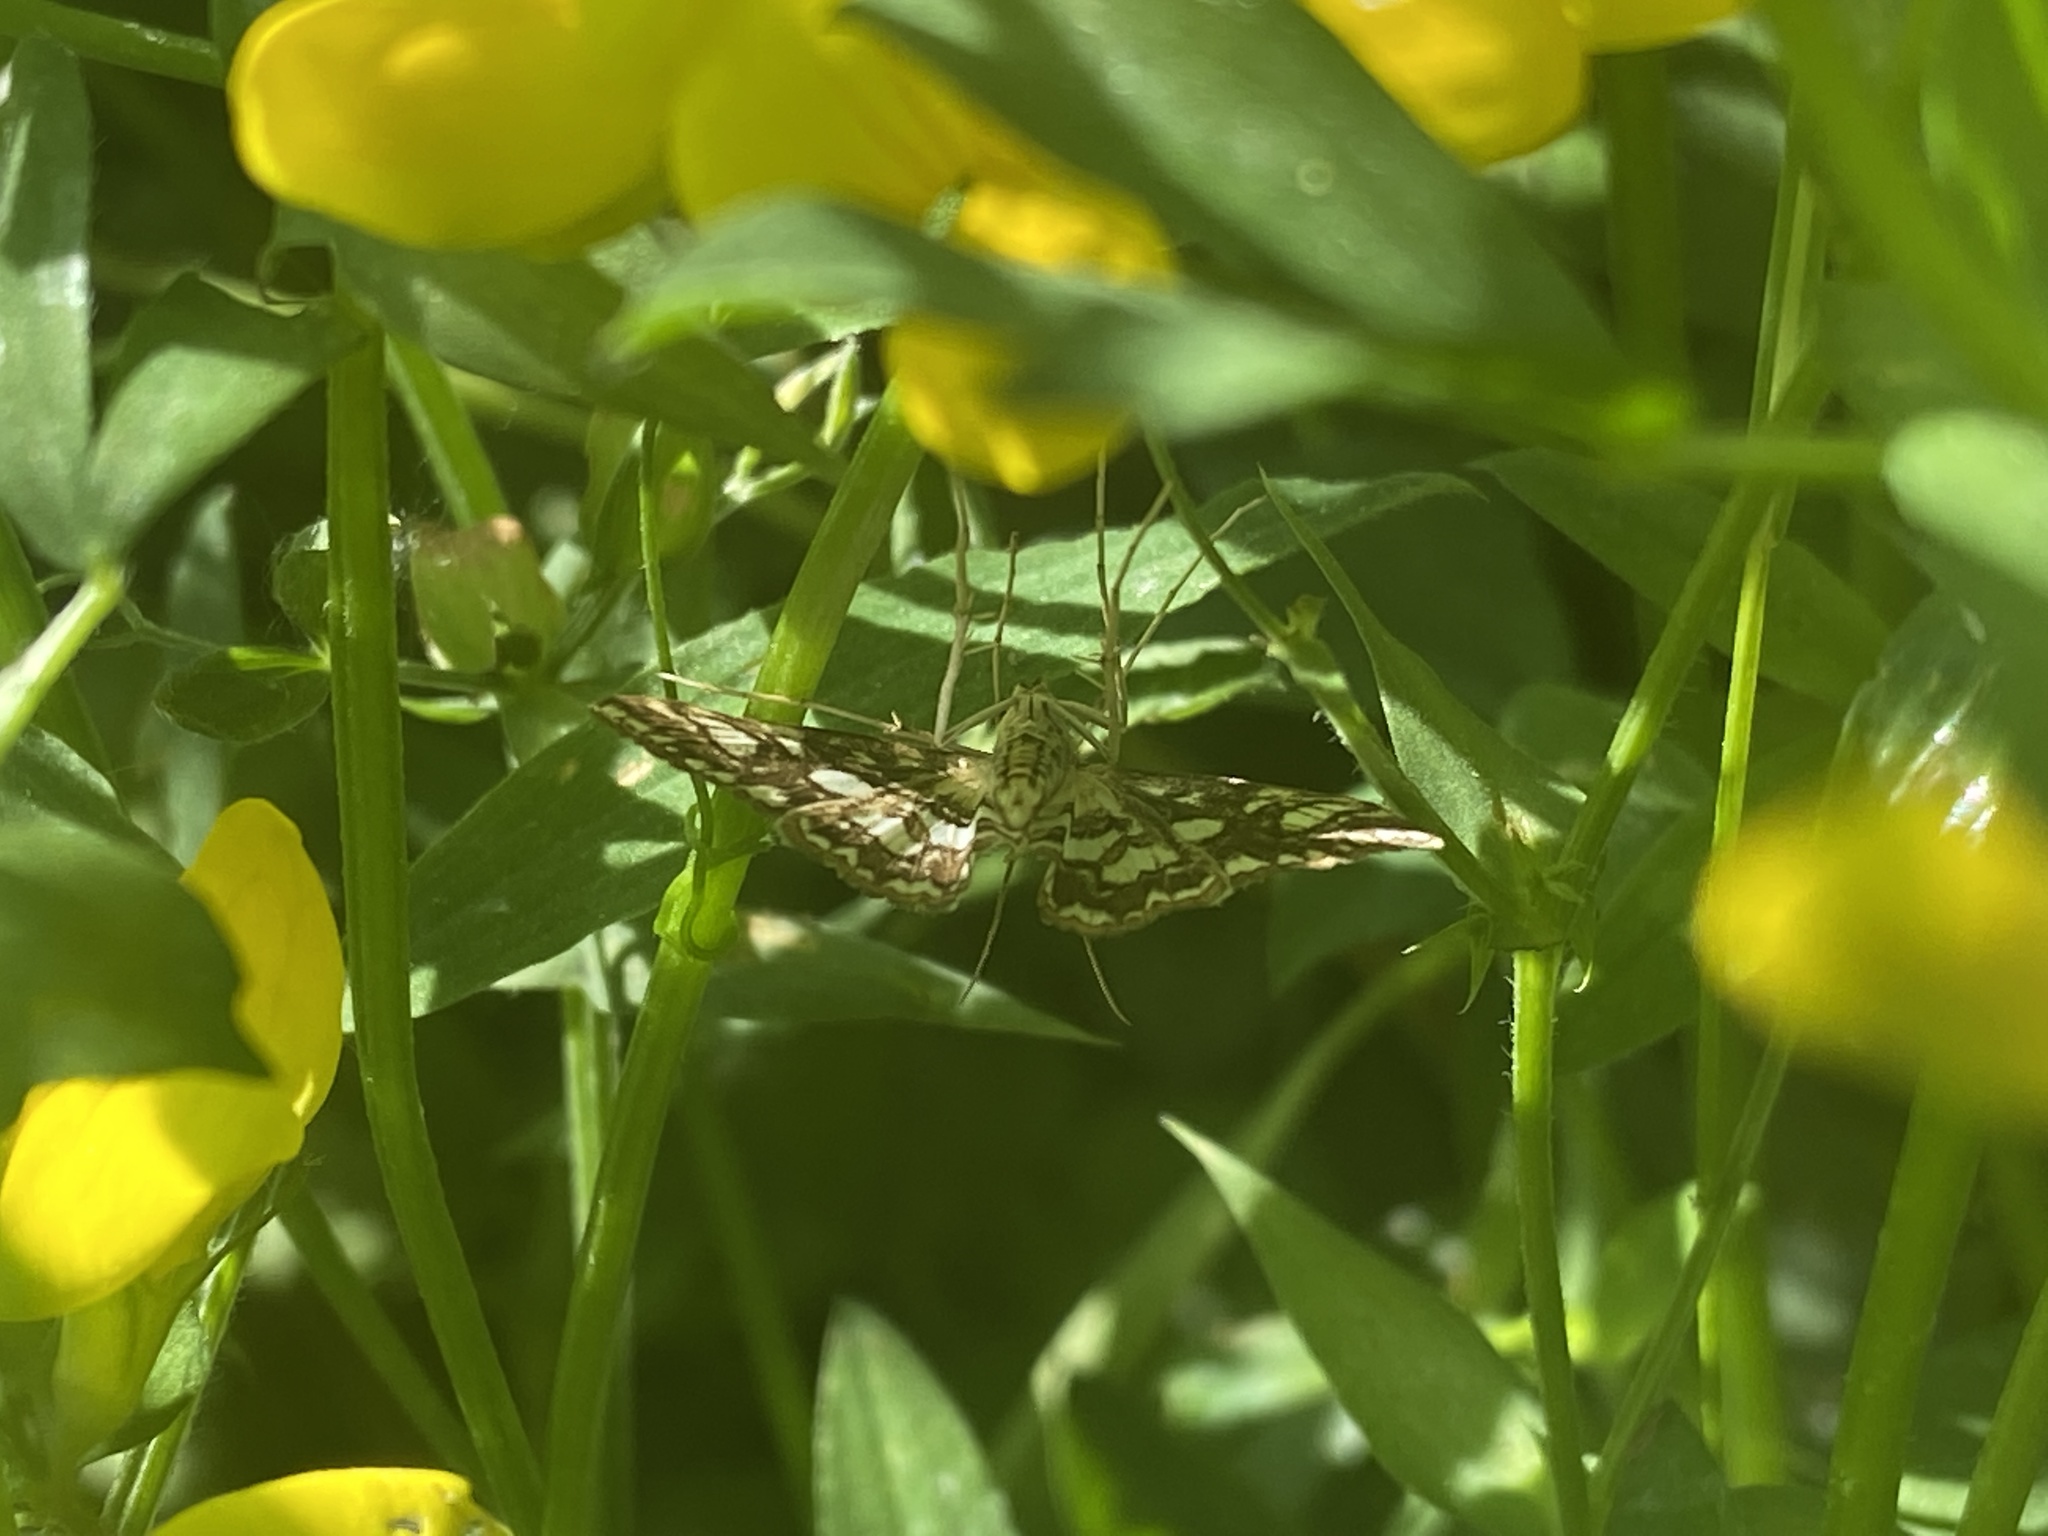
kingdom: Animalia
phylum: Arthropoda
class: Insecta
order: Lepidoptera
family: Geometridae
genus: Chiasmia
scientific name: Chiasmia clathrata
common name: Latticed heath
